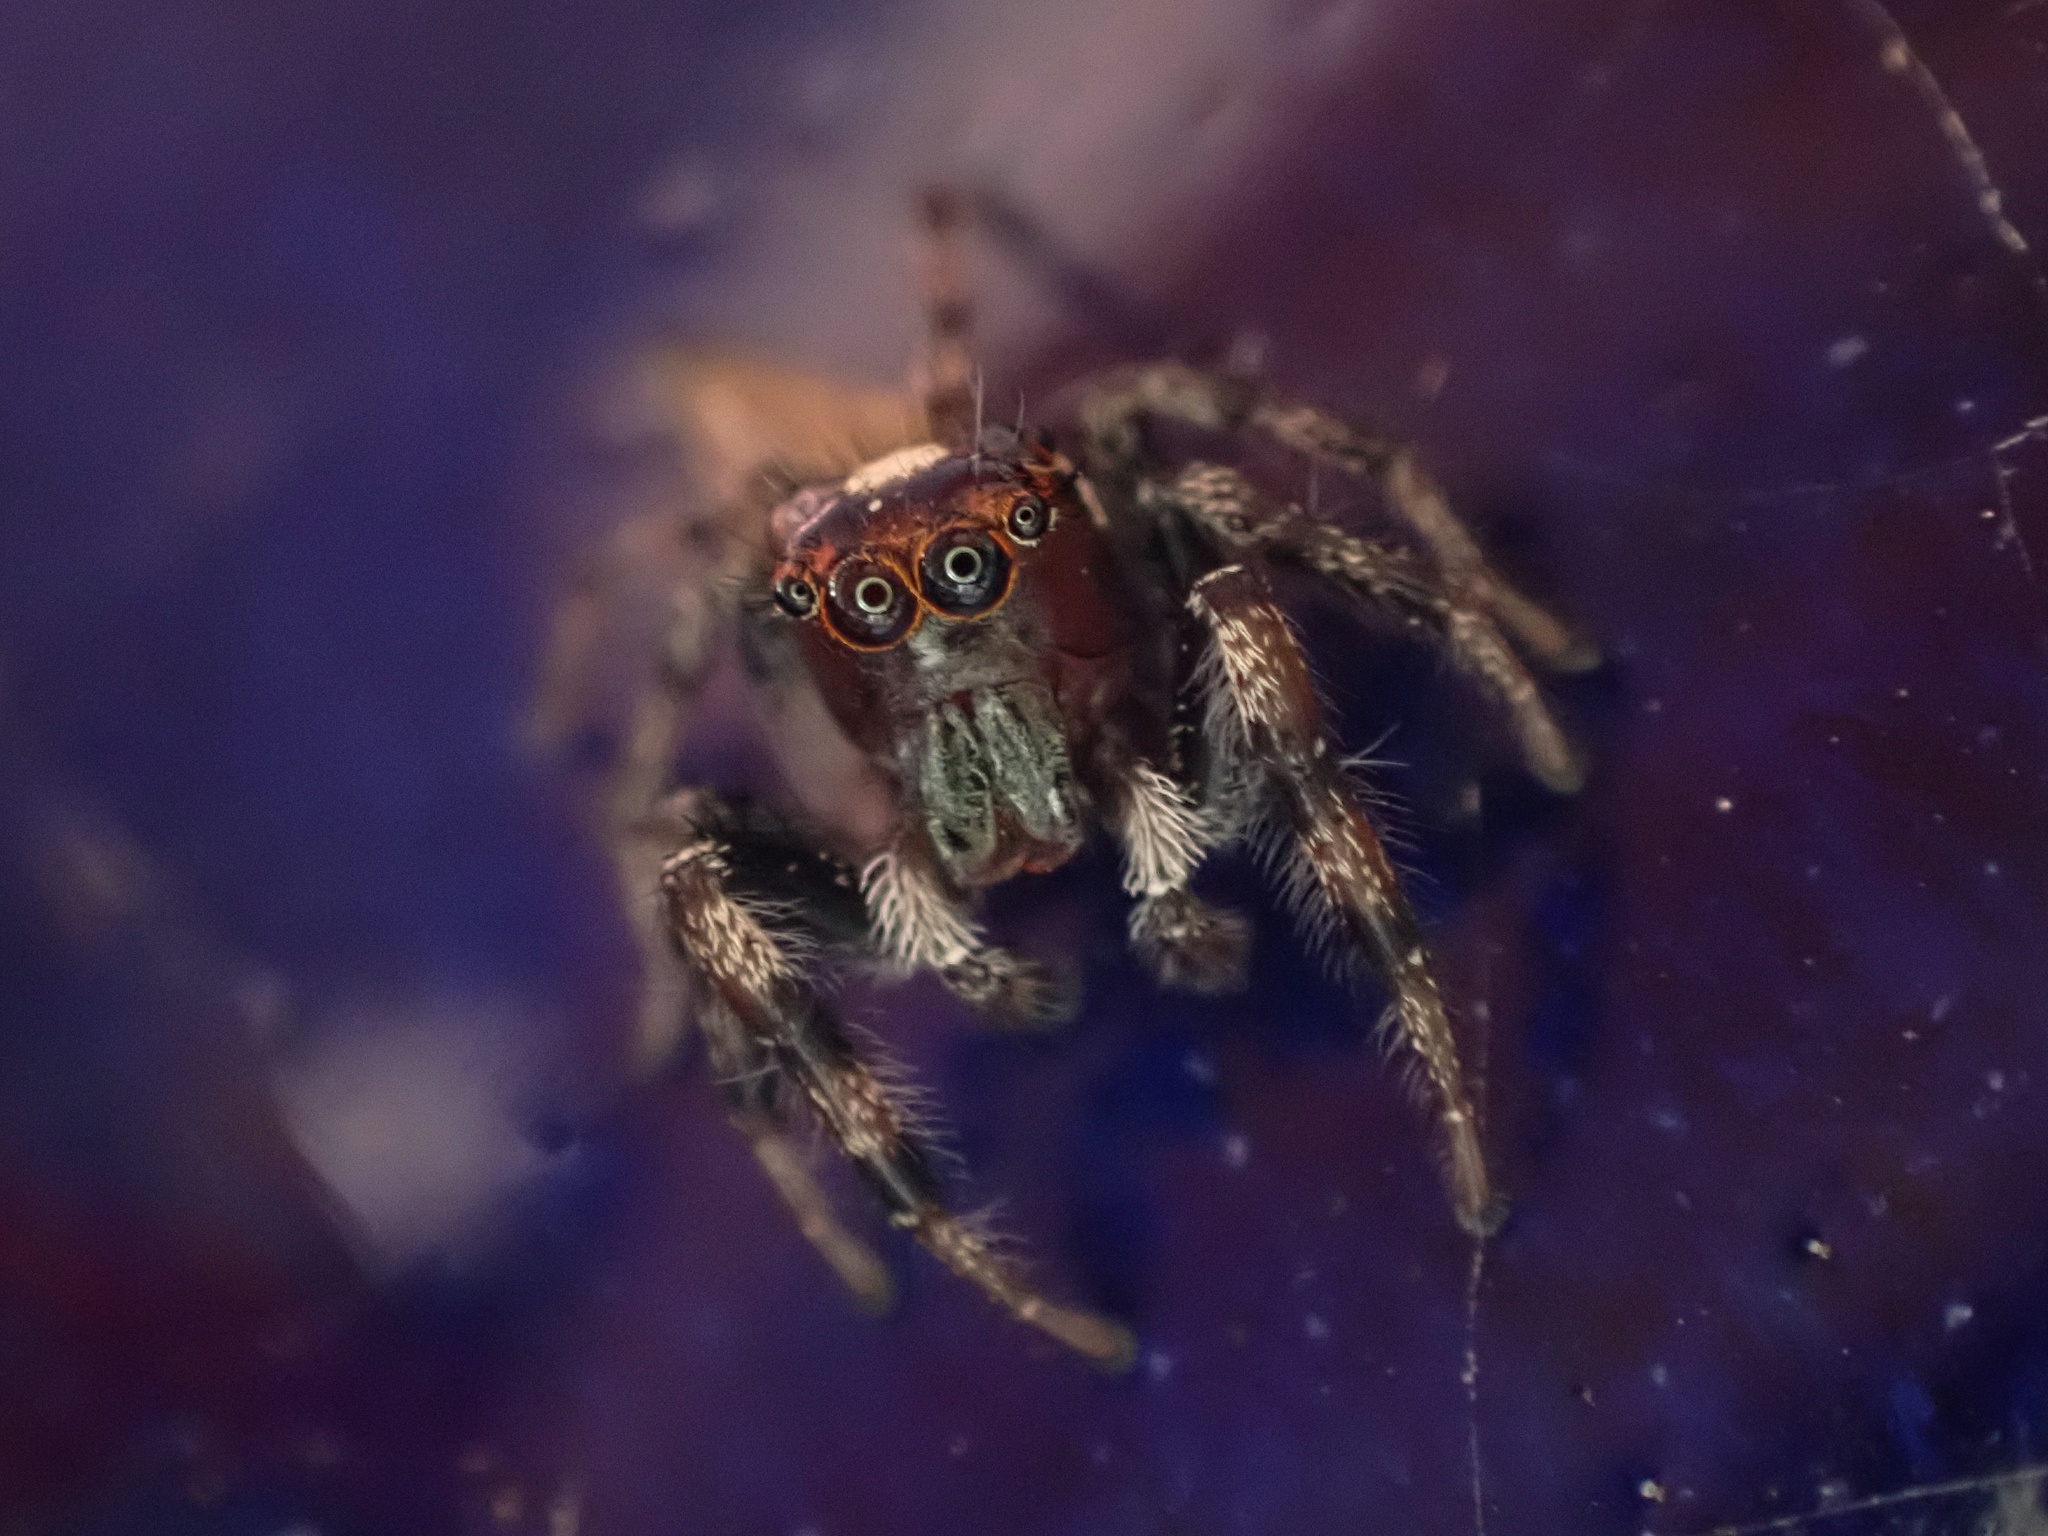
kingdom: Animalia
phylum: Arthropoda
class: Arachnida
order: Araneae
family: Salticidae
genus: Colonus
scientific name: Colonus hesperus
